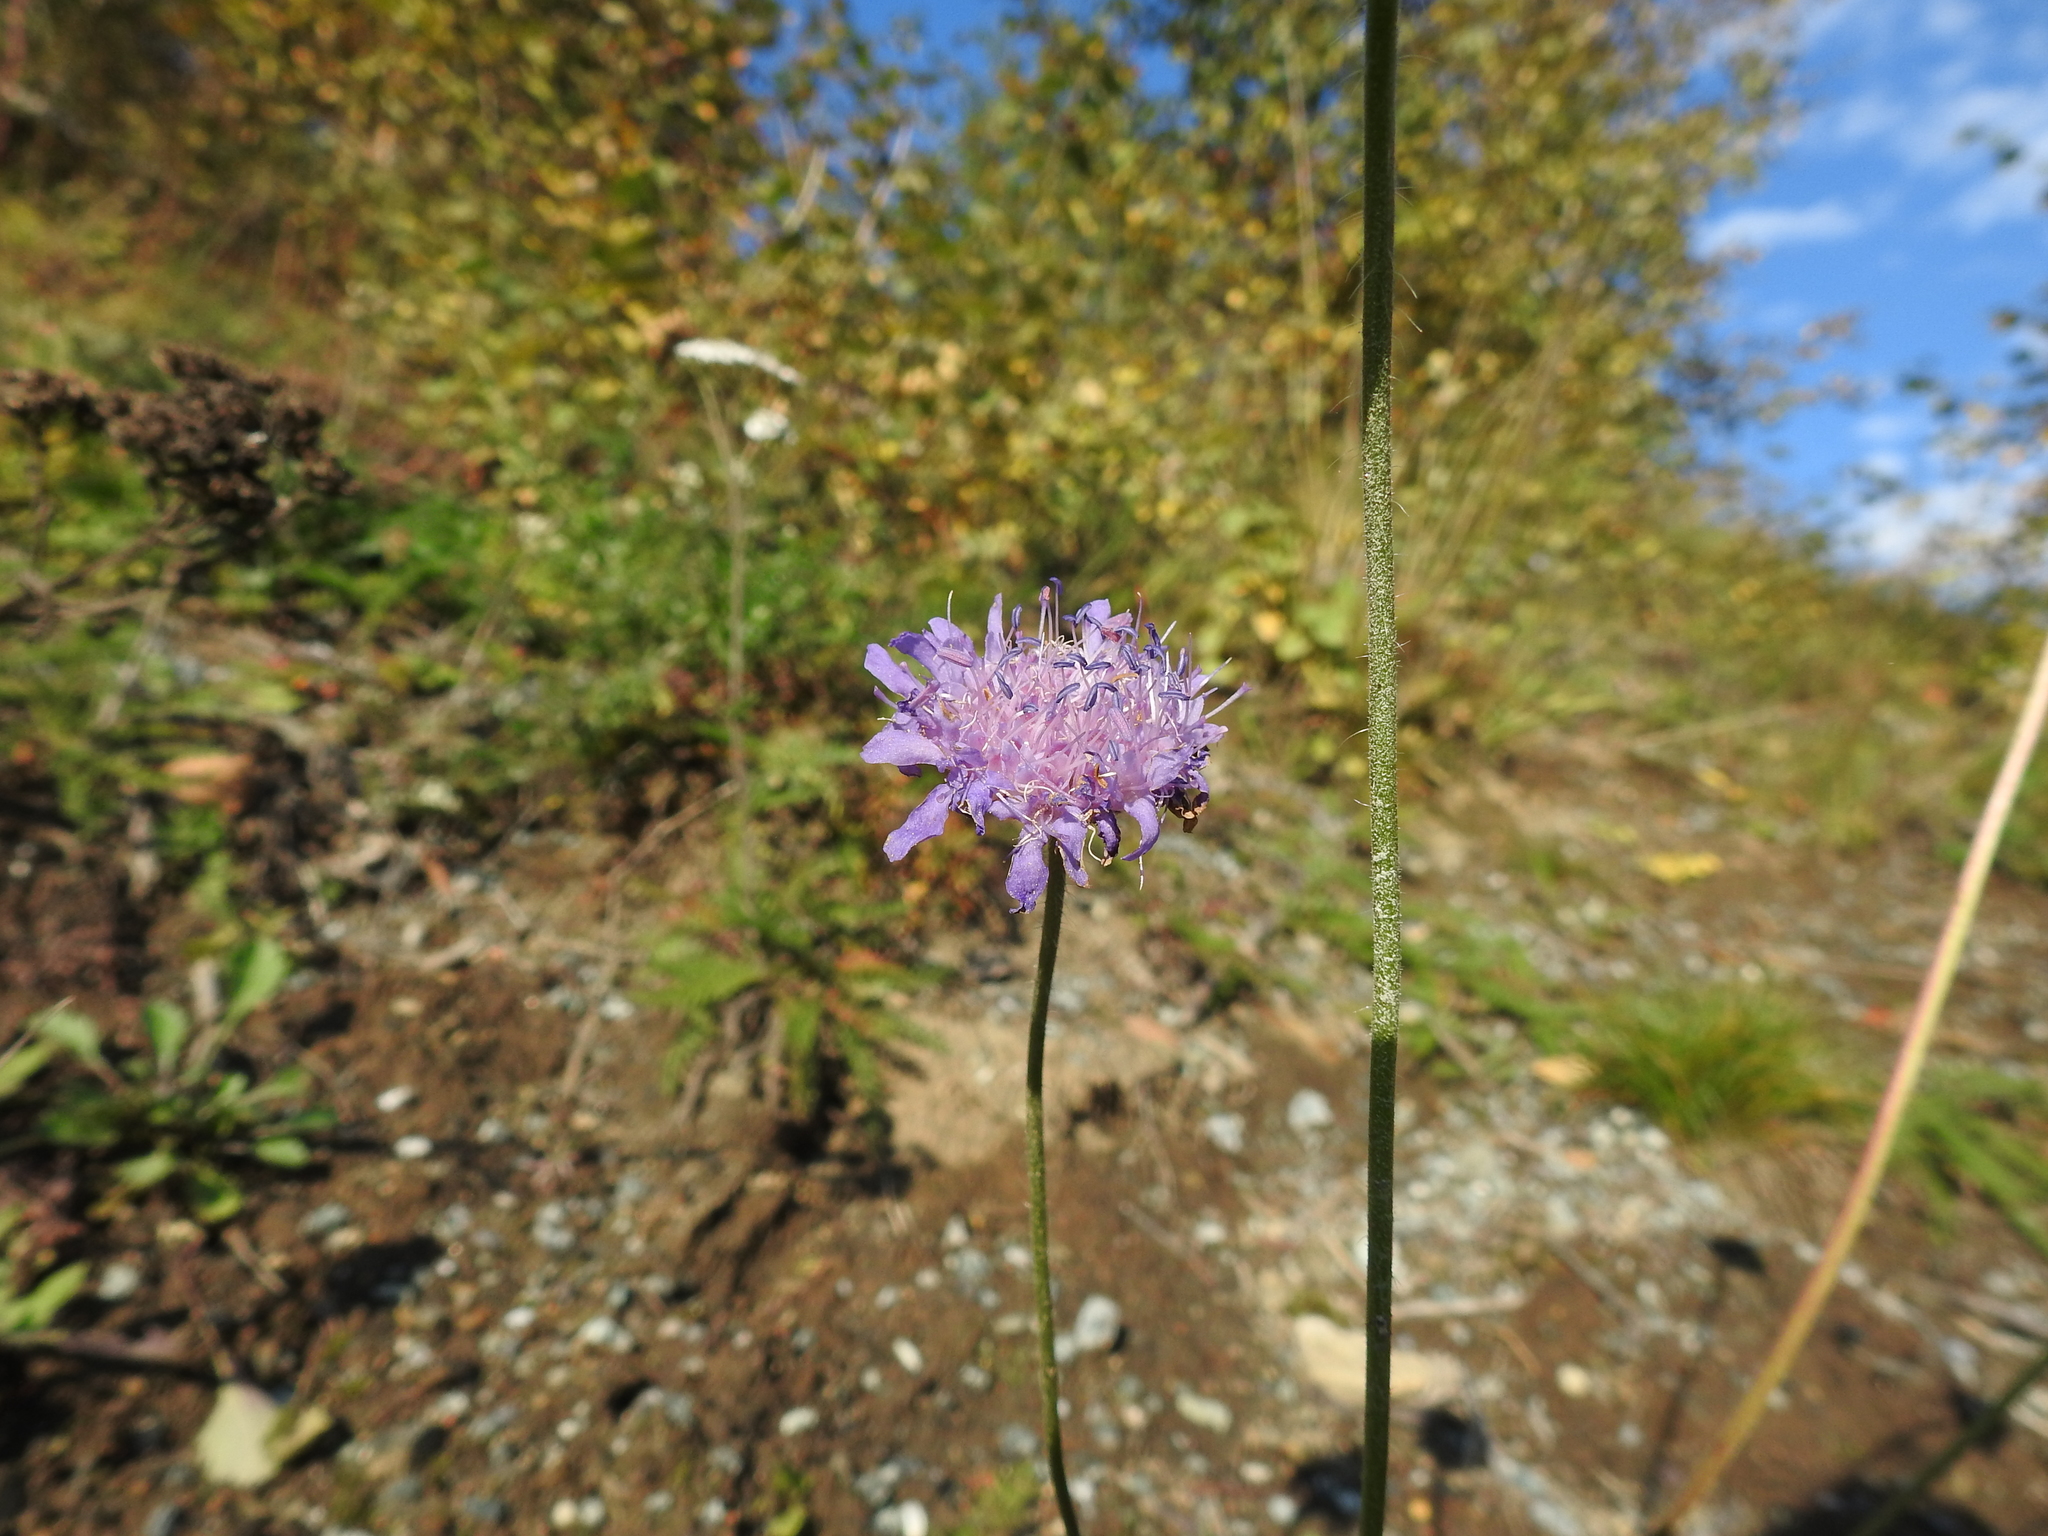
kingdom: Plantae
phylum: Tracheophyta
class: Magnoliopsida
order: Dipsacales
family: Caprifoliaceae
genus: Knautia
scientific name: Knautia arvensis
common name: Field scabiosa
